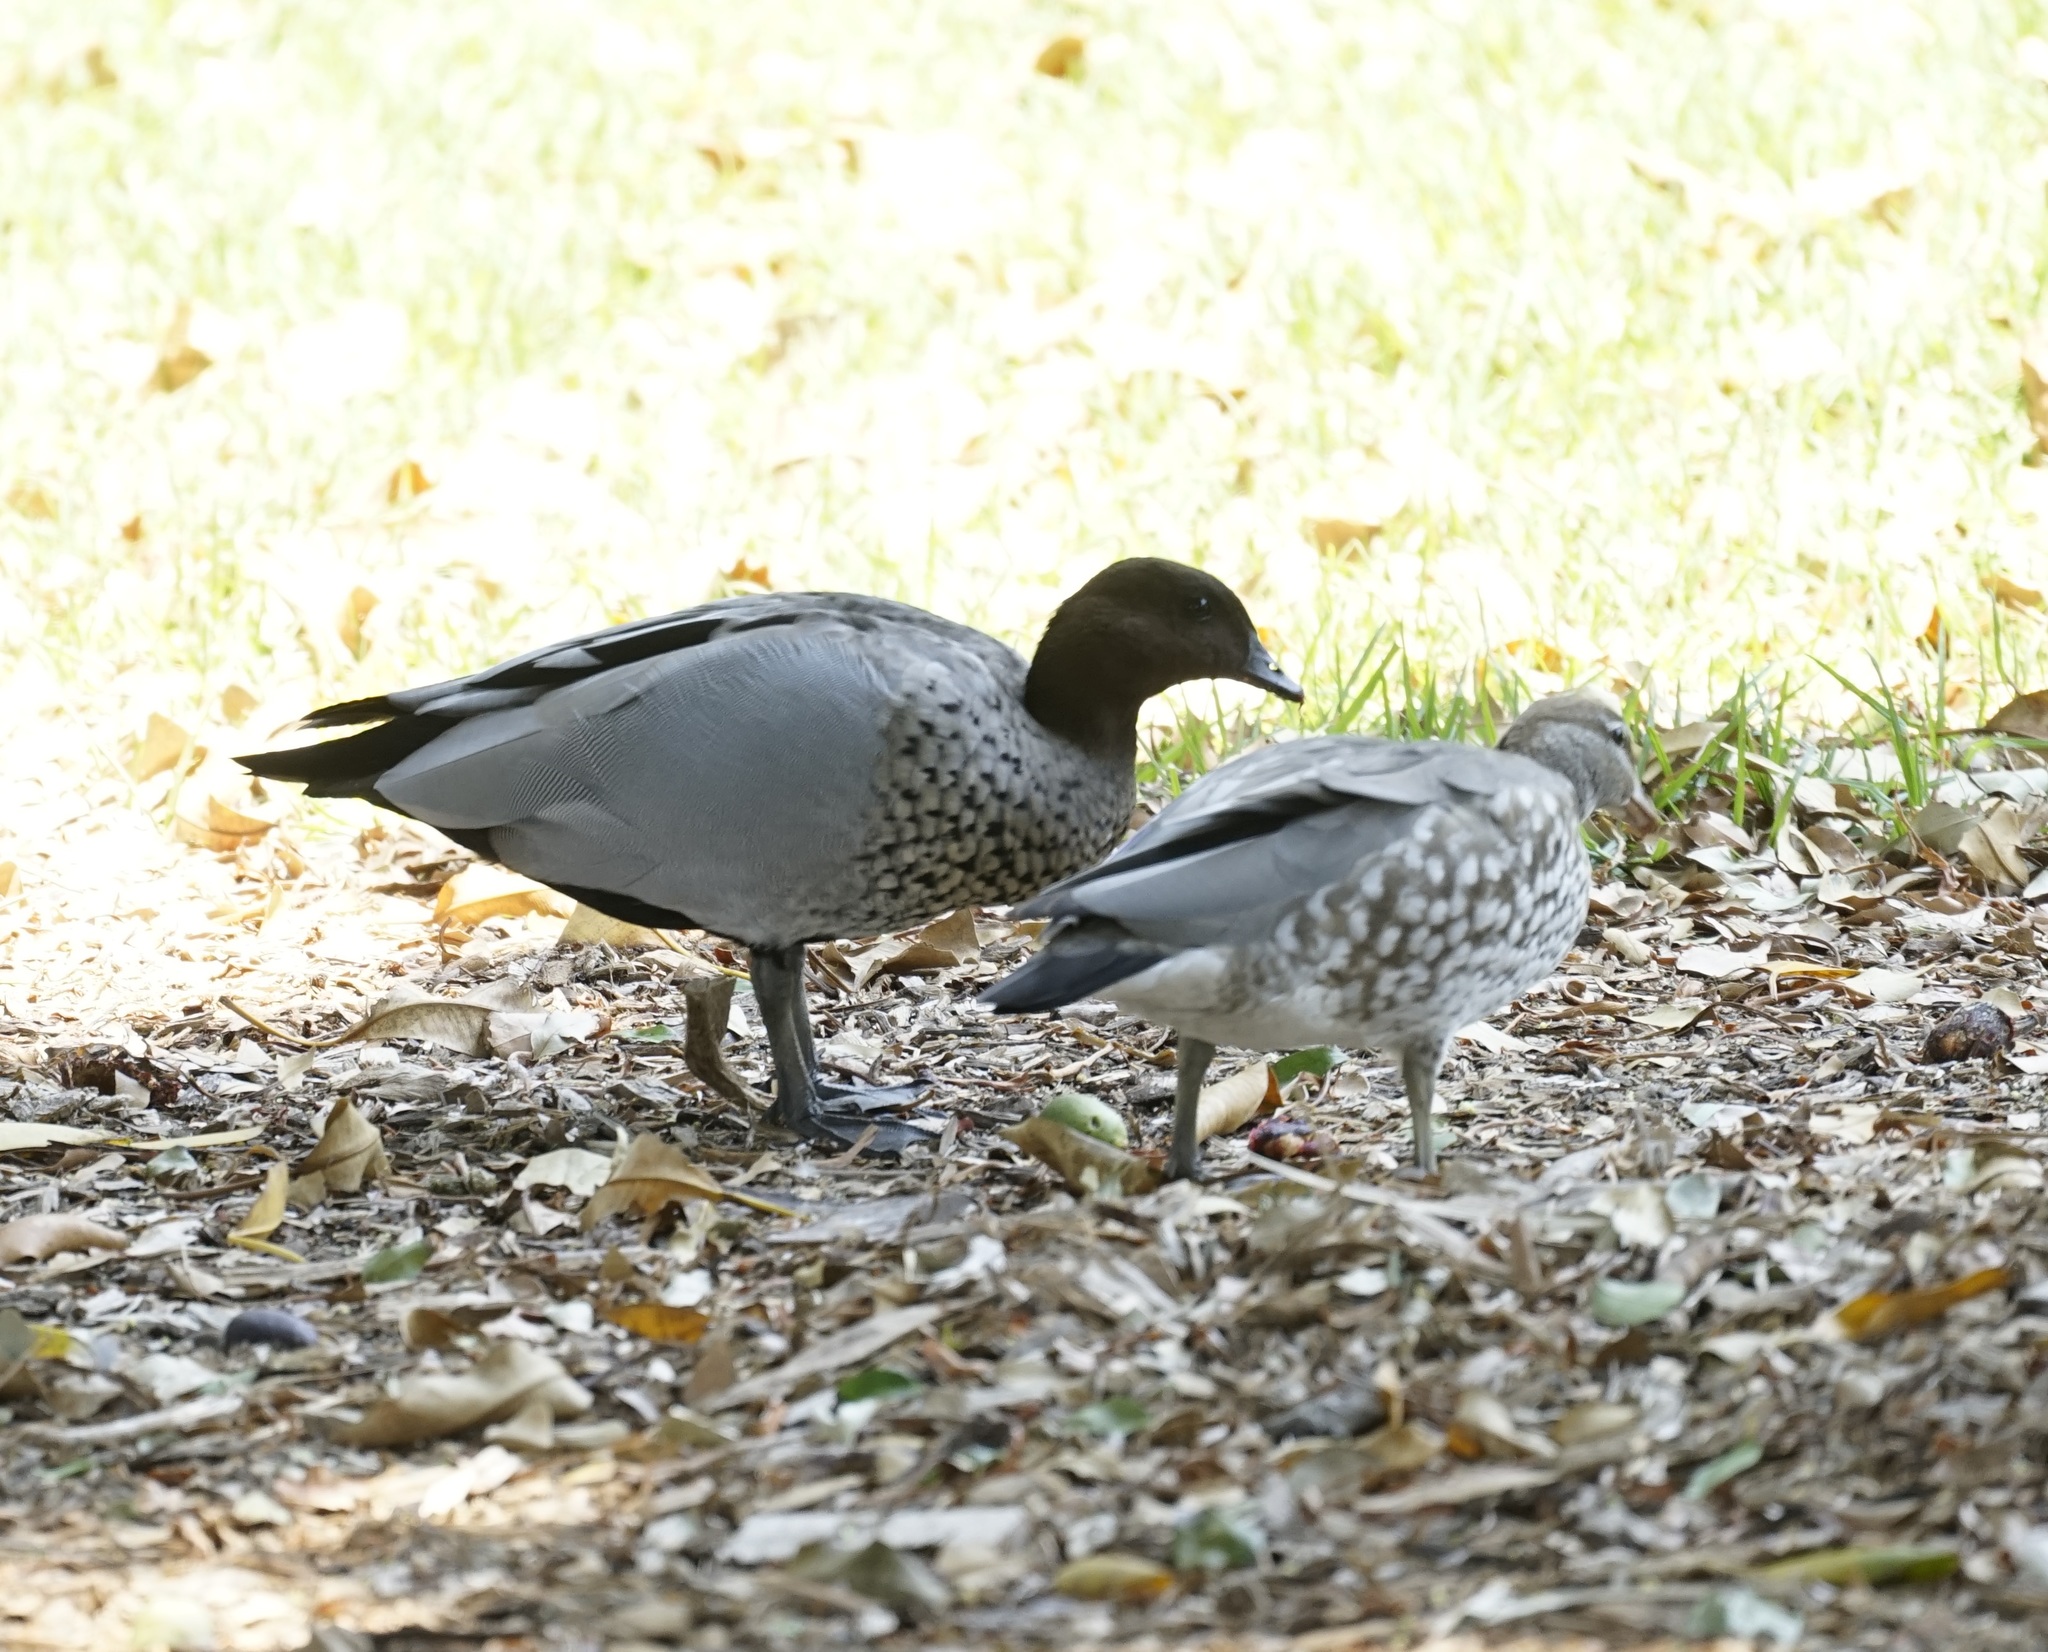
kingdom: Animalia
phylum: Chordata
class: Aves
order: Anseriformes
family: Anatidae
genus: Chenonetta
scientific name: Chenonetta jubata
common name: Maned duck
